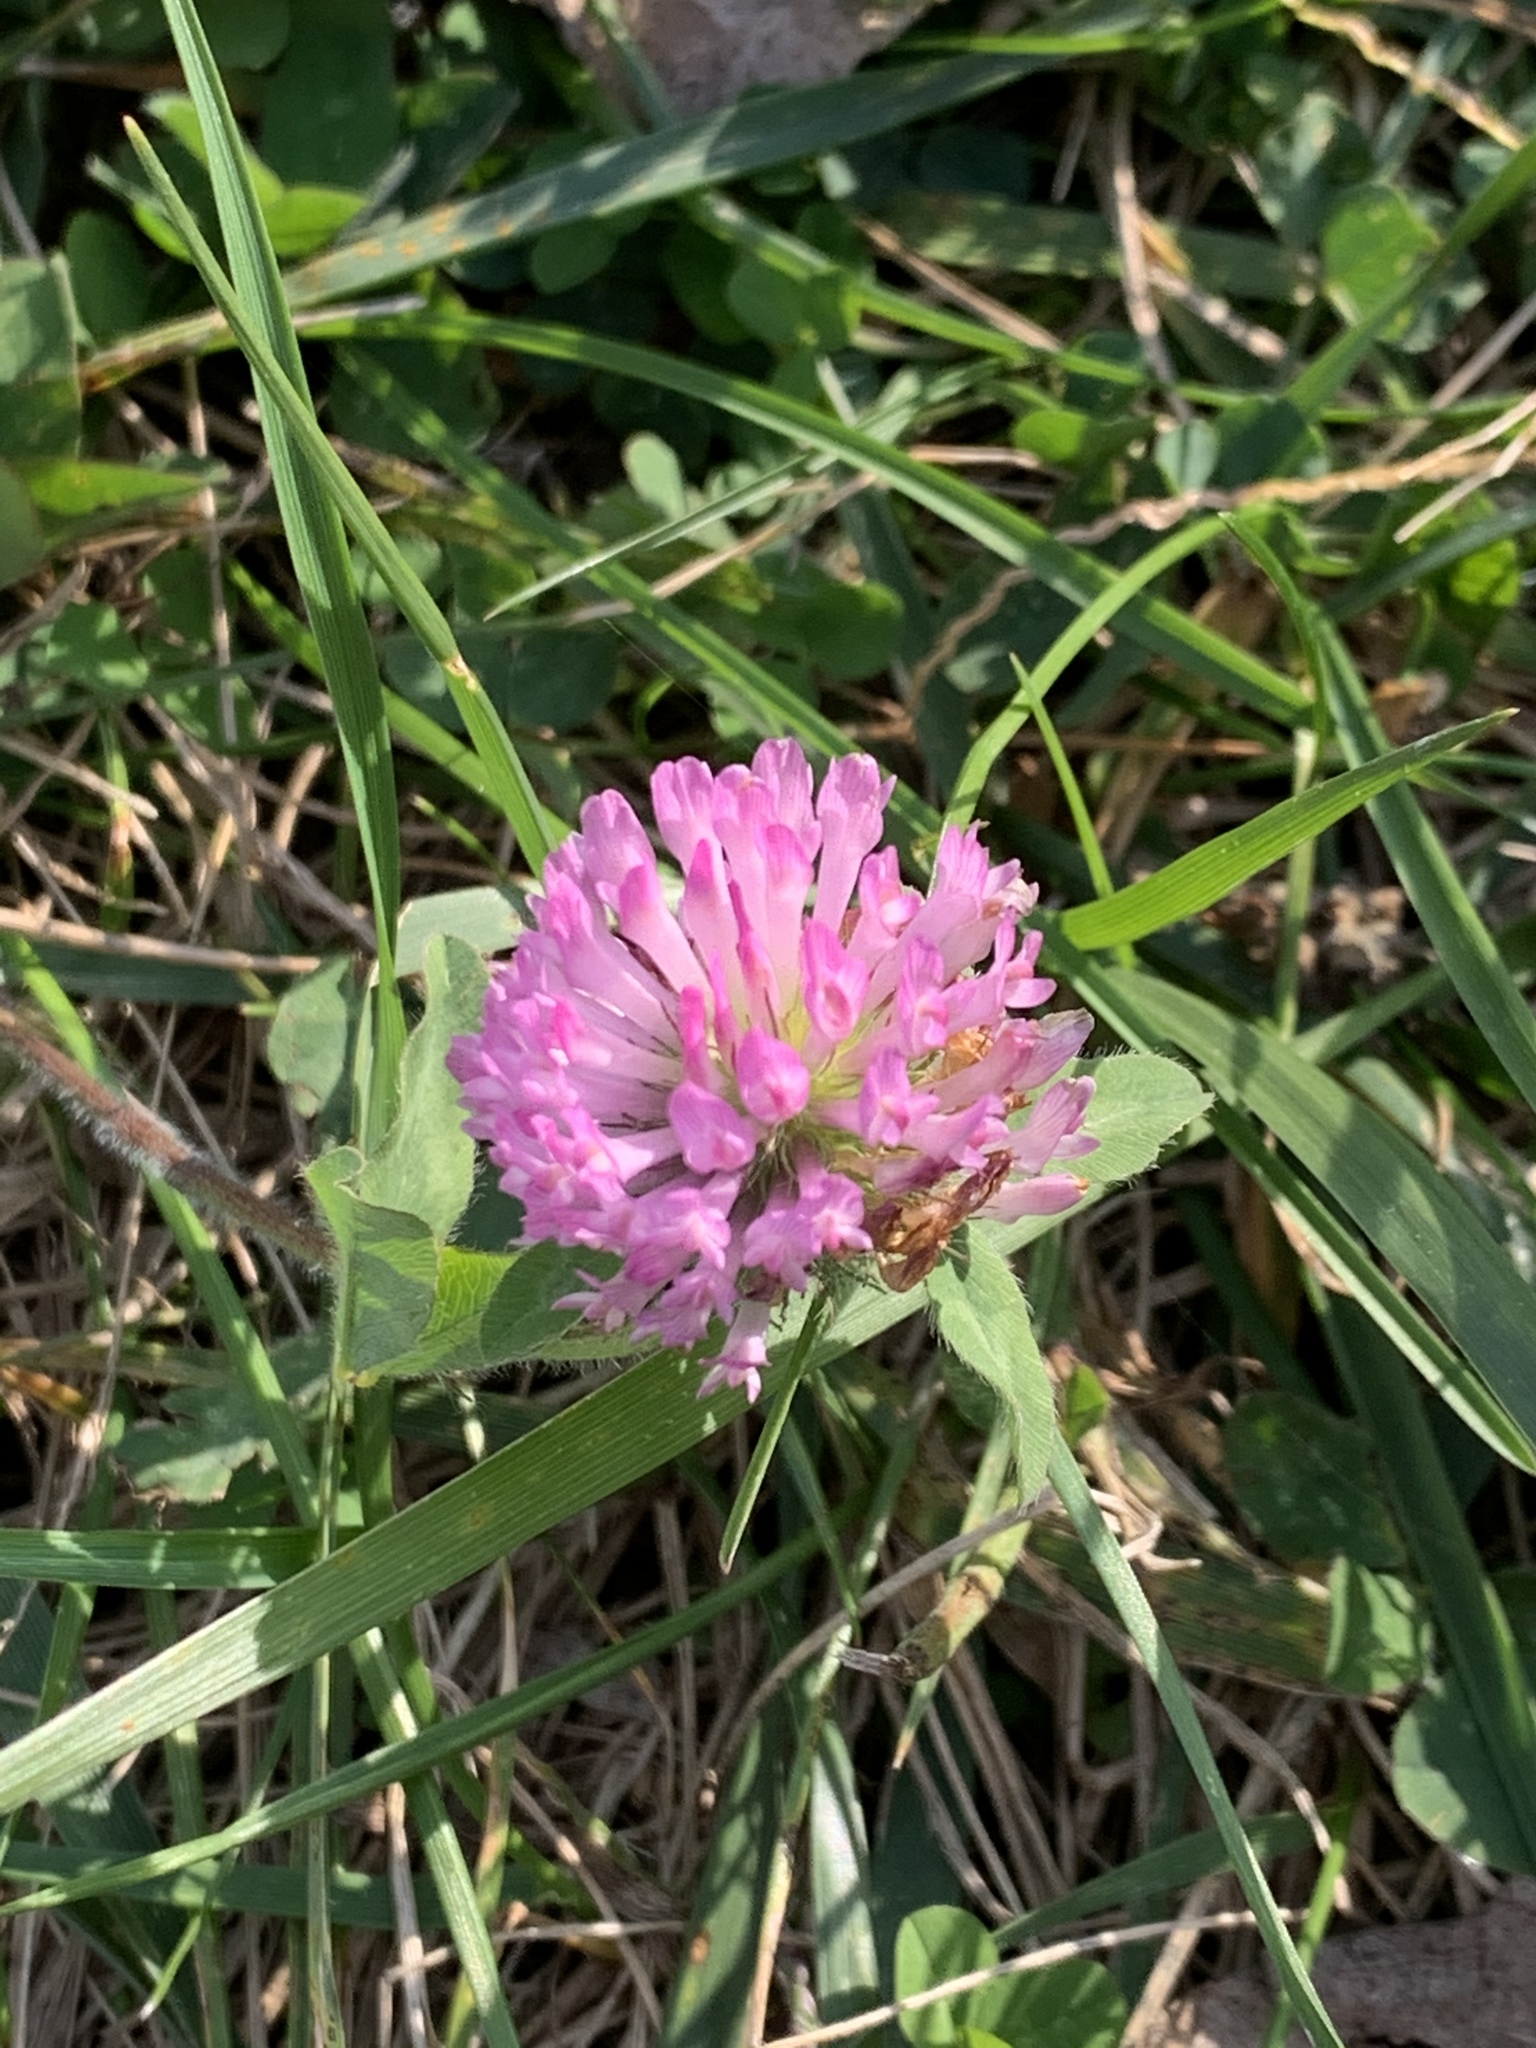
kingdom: Plantae
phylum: Tracheophyta
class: Magnoliopsida
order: Fabales
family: Fabaceae
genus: Trifolium
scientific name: Trifolium pratense
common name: Red clover
